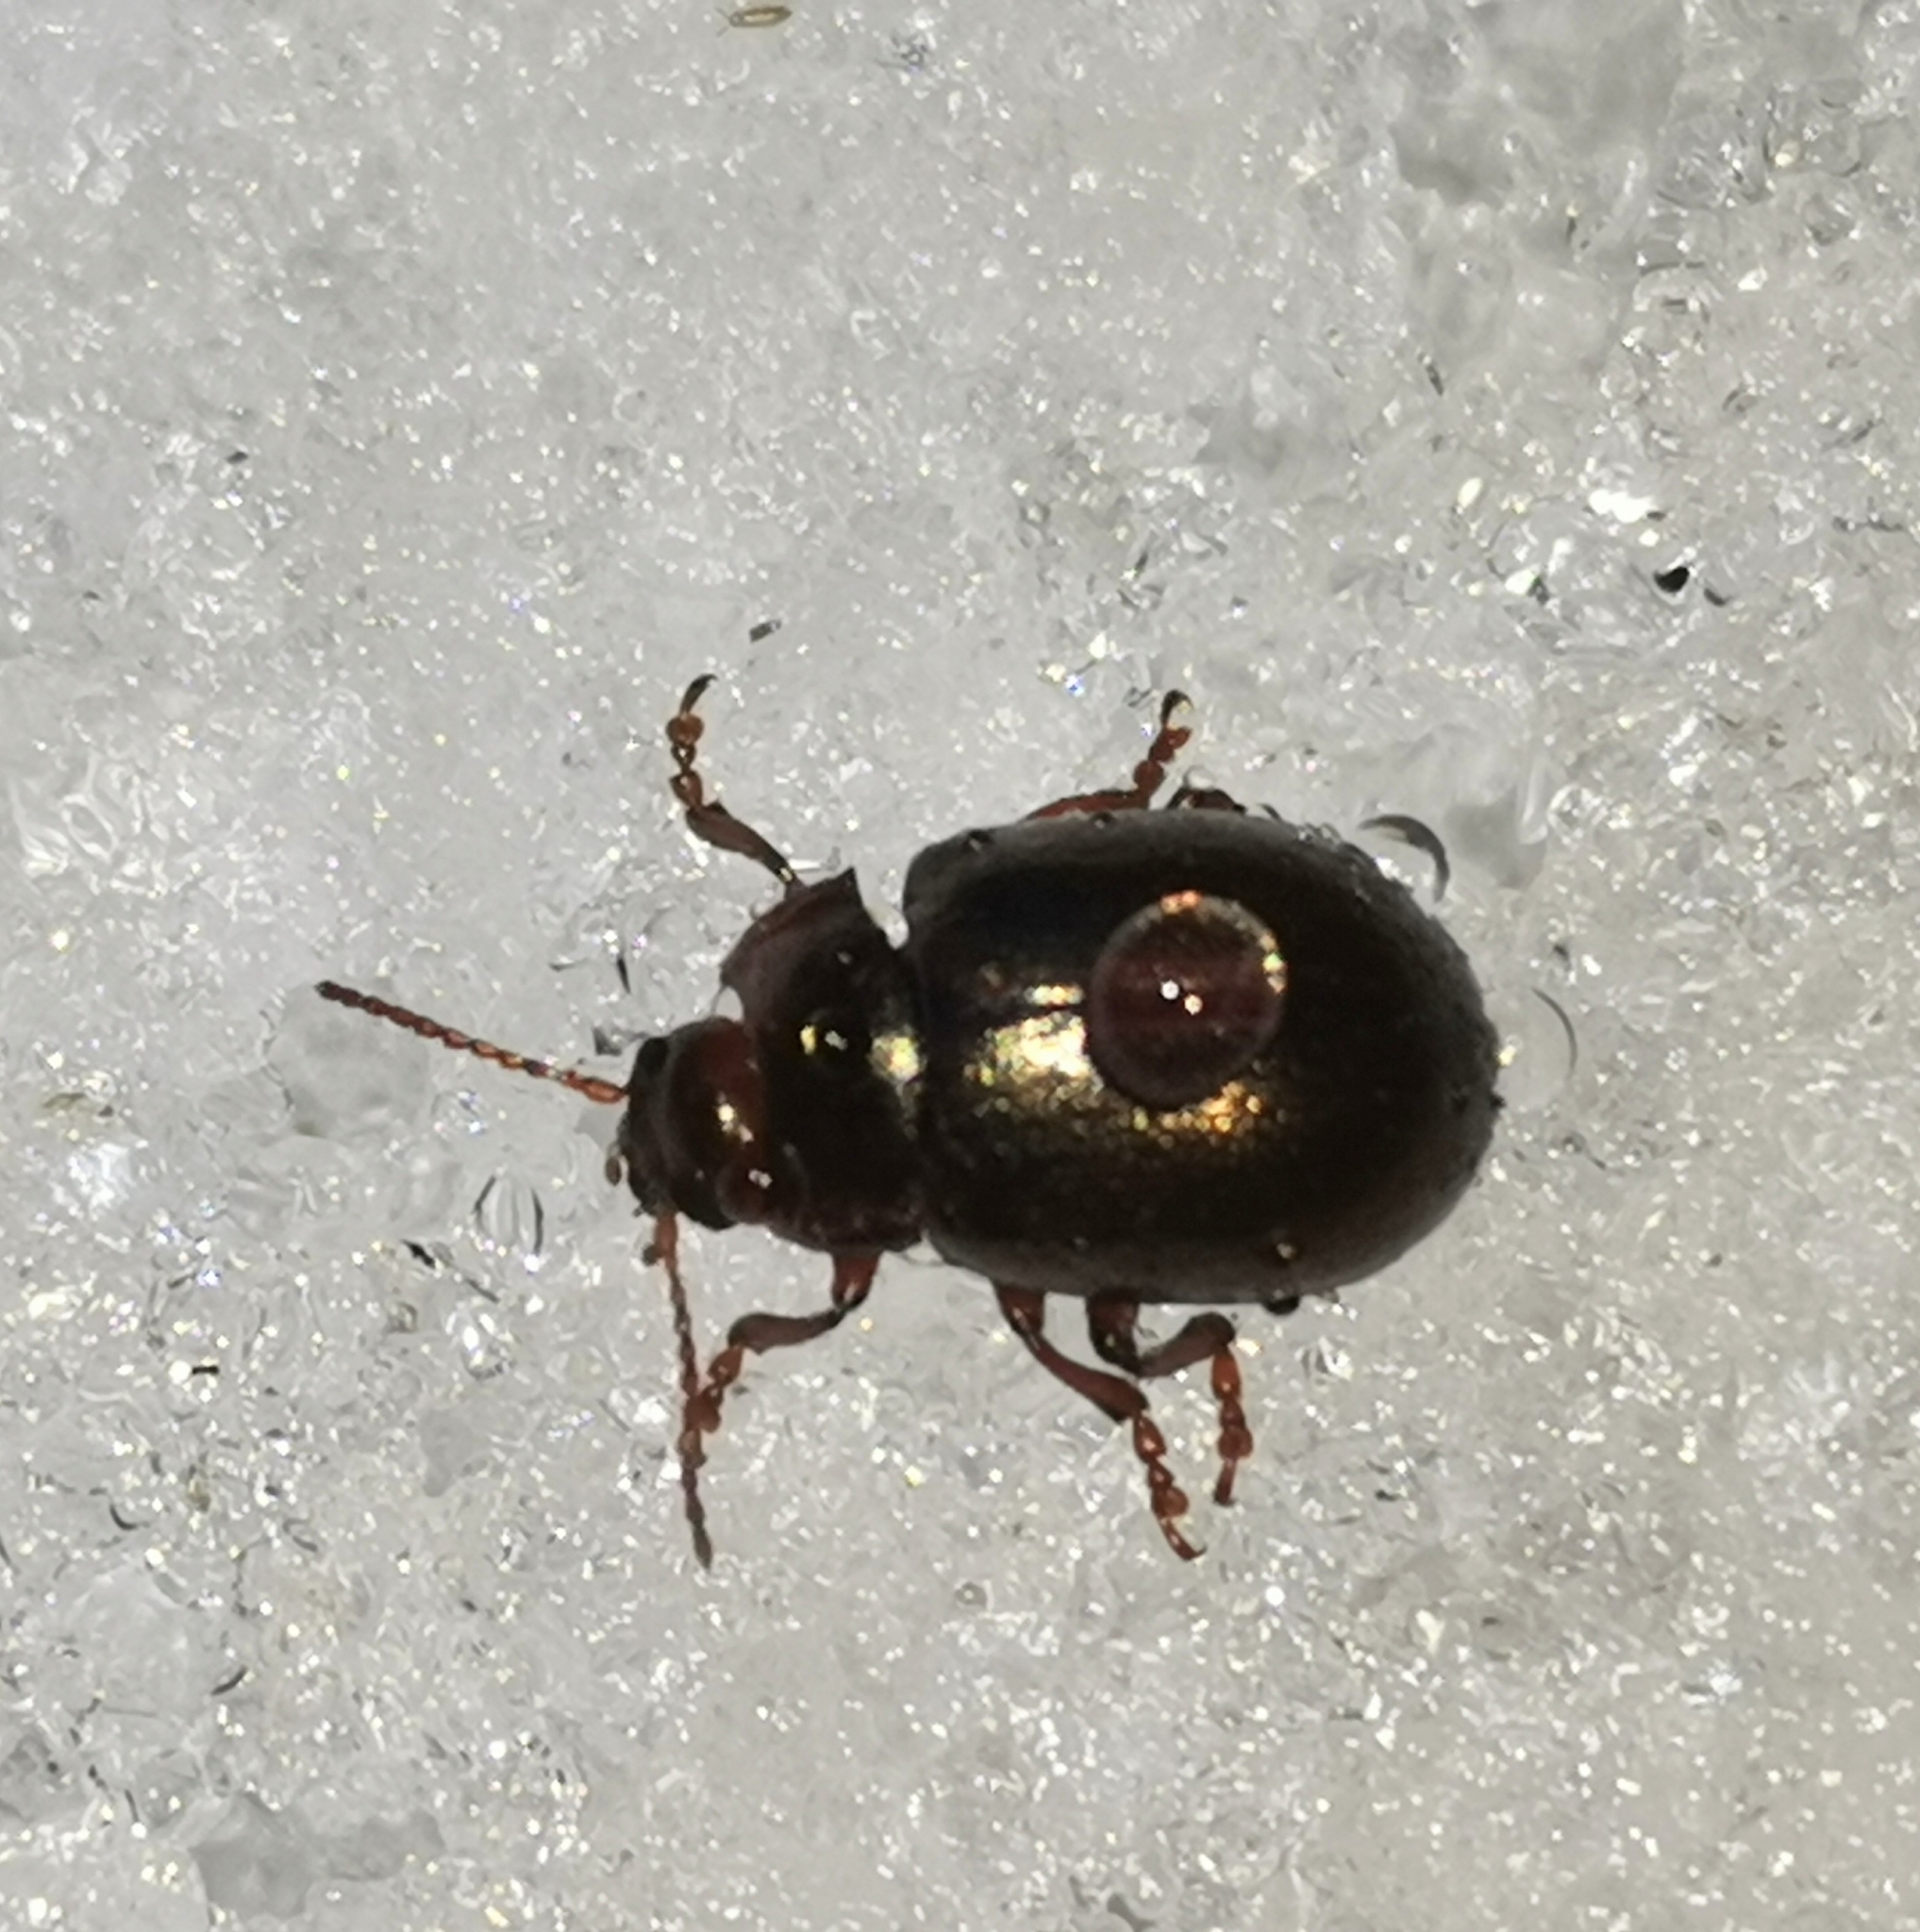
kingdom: Animalia
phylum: Arthropoda
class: Insecta
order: Coleoptera
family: Chrysomelidae
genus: Chrysolina
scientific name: Chrysolina staphylaea
